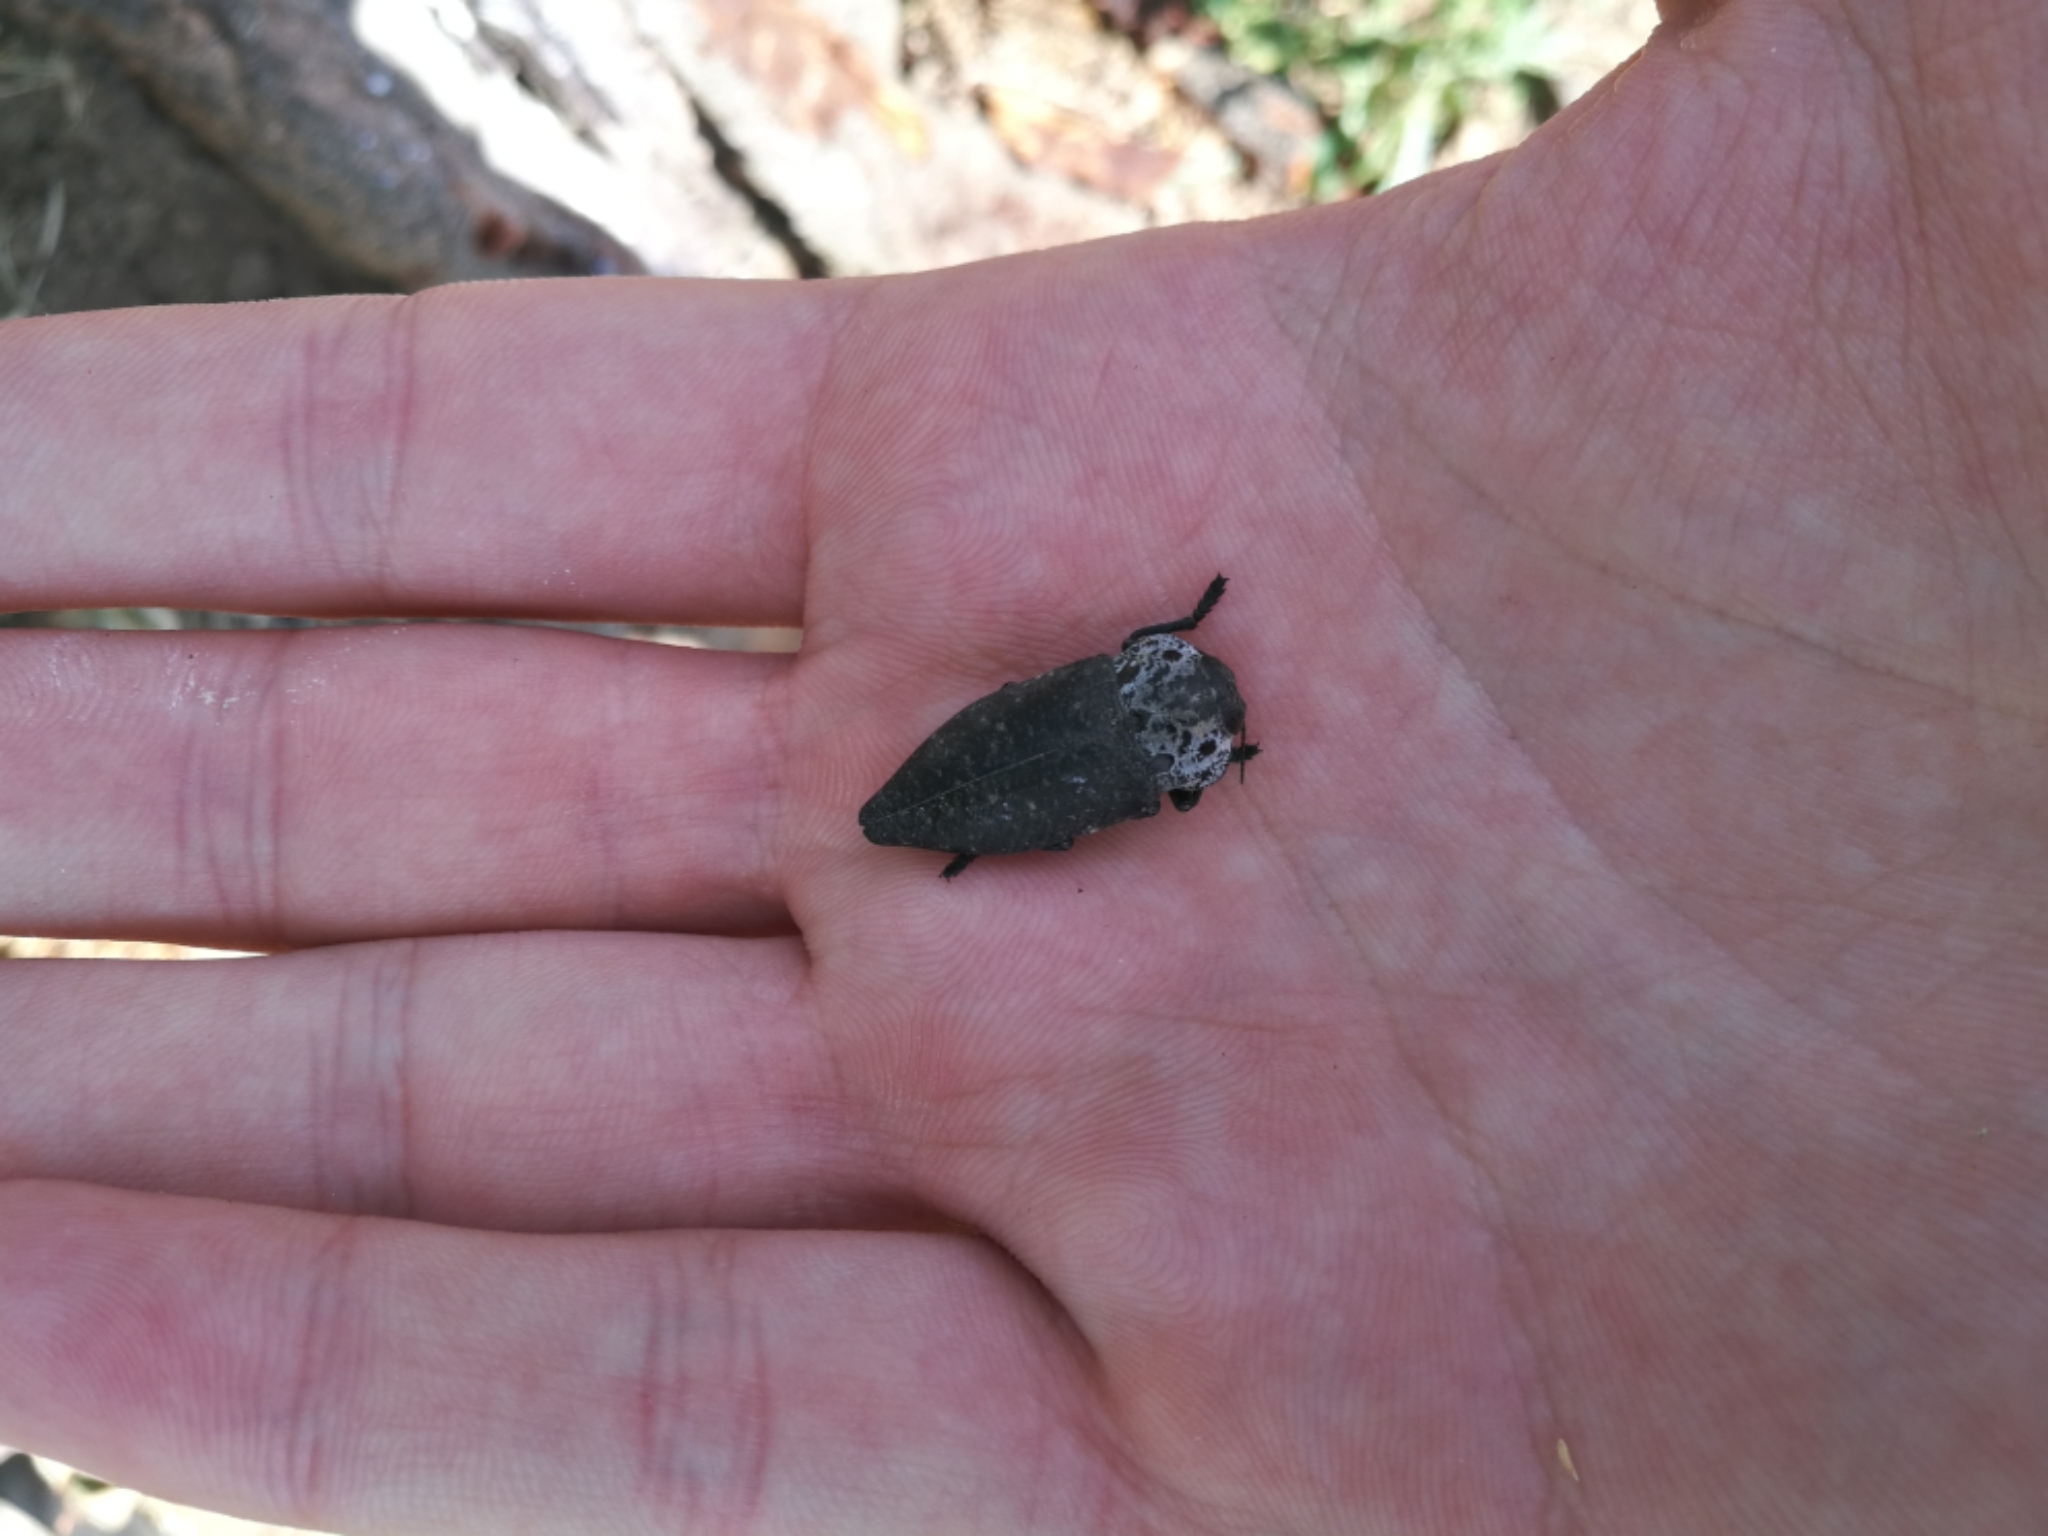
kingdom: Animalia
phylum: Arthropoda
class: Insecta
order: Coleoptera
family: Buprestidae
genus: Capnodis
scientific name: Capnodis tenebrionis
